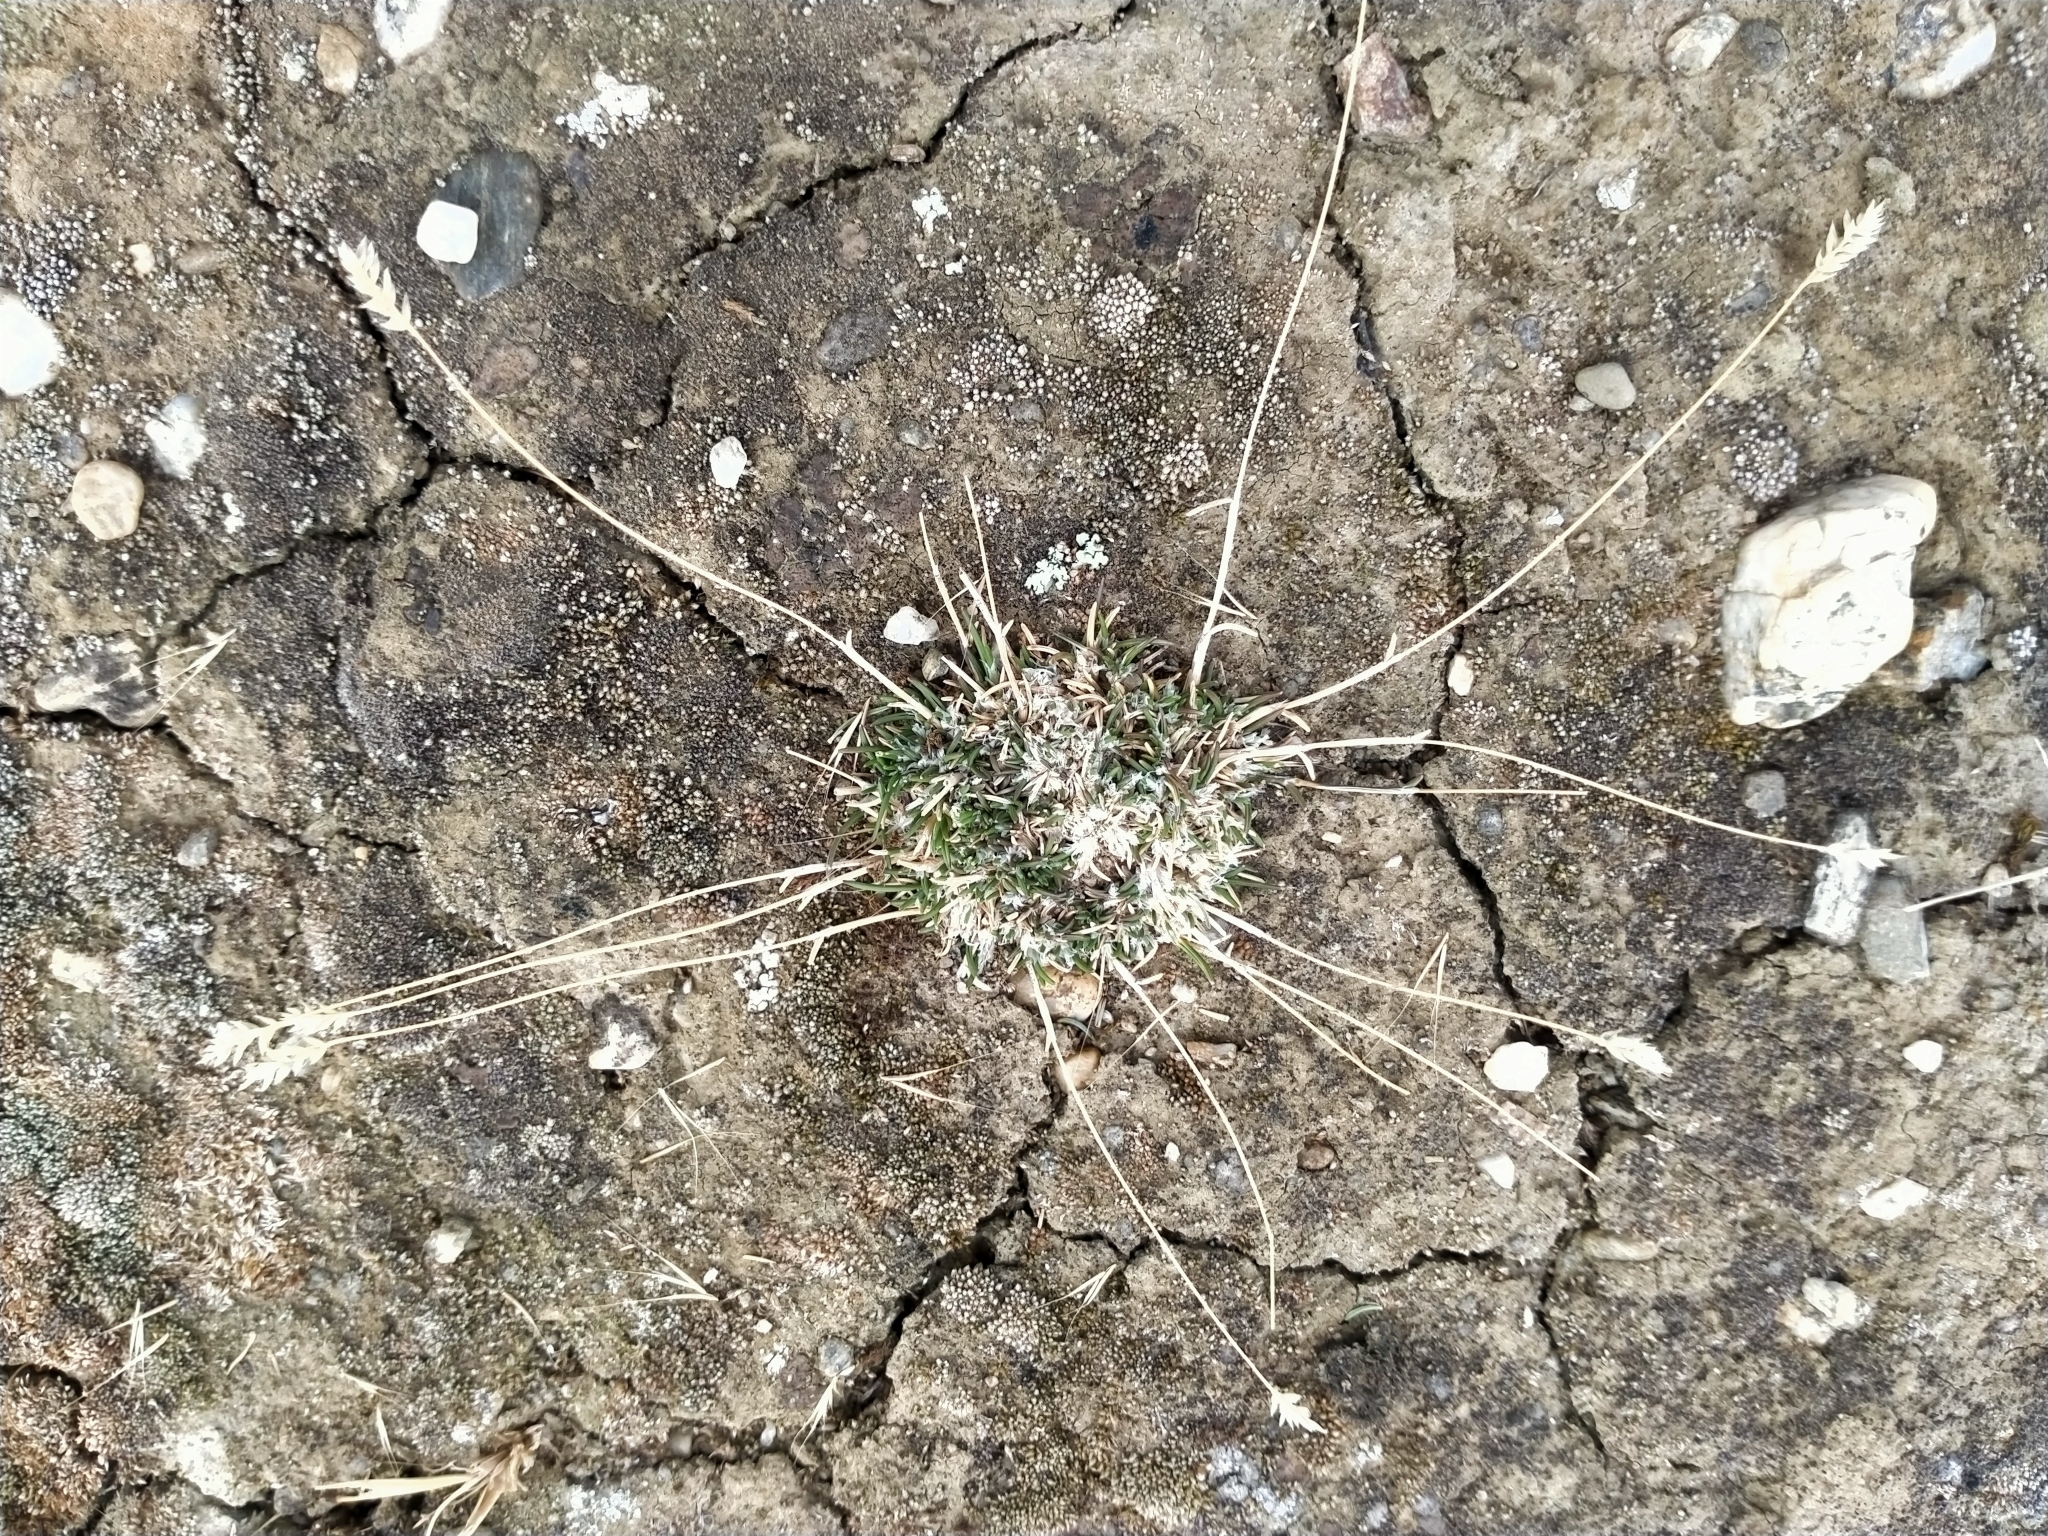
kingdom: Plantae
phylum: Tracheophyta
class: Liliopsida
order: Poales
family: Poaceae
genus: Poa
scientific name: Poa maniototo
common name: Desert poa
